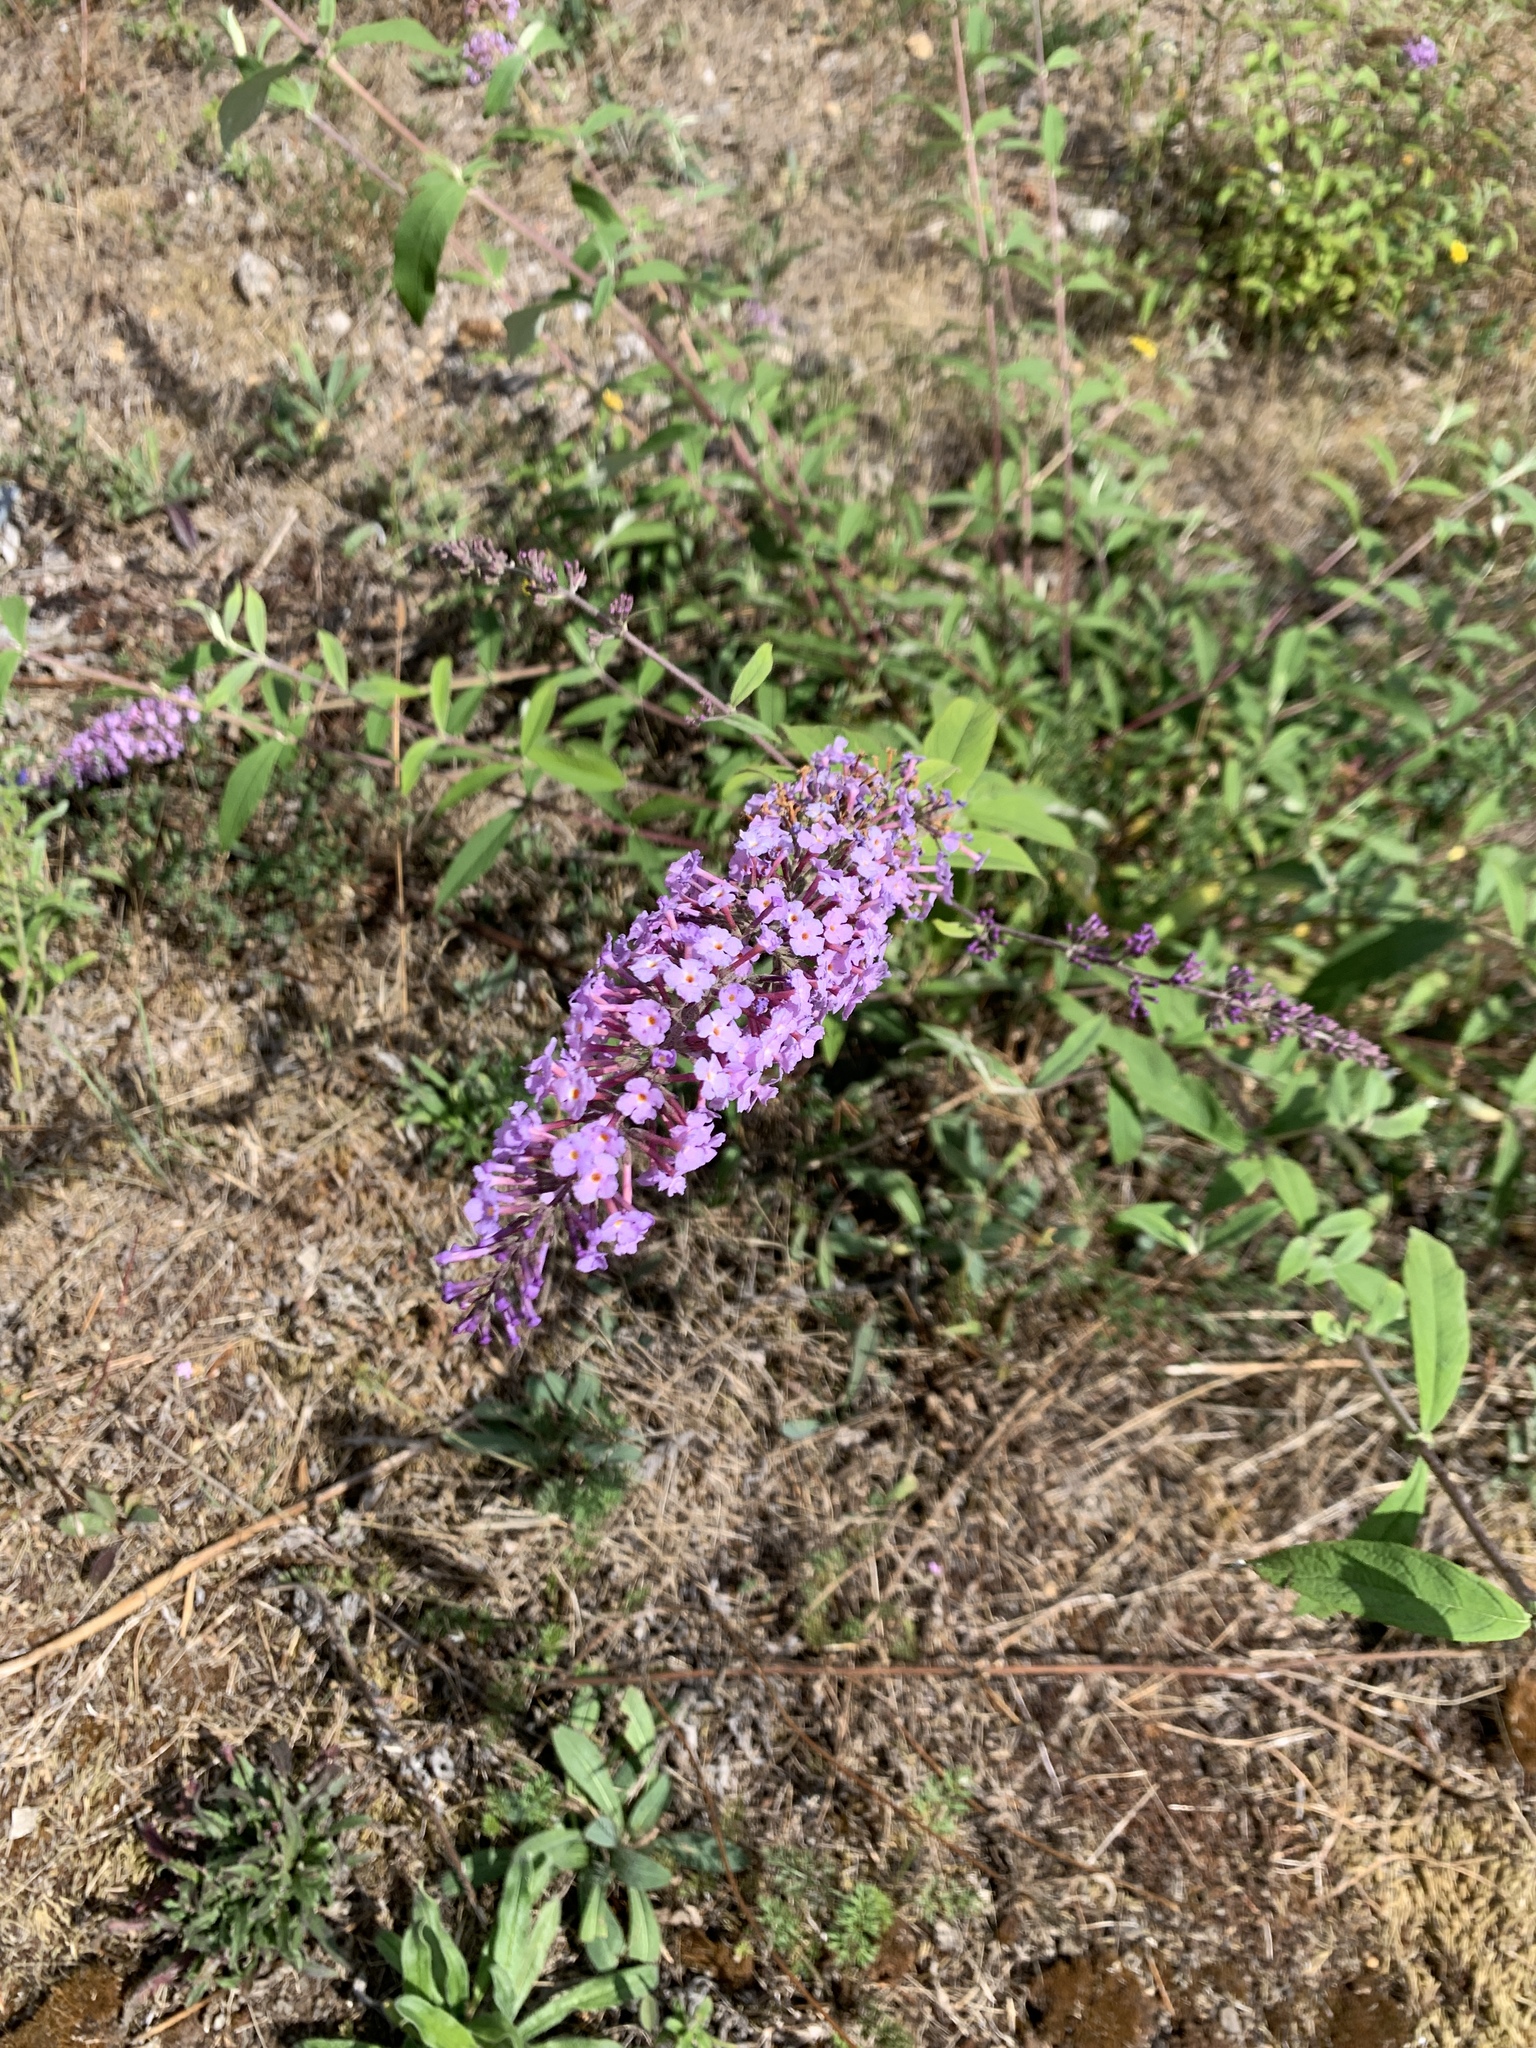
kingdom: Plantae
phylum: Tracheophyta
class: Magnoliopsida
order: Lamiales
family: Scrophulariaceae
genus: Buddleja
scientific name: Buddleja davidii
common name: Butterfly-bush
